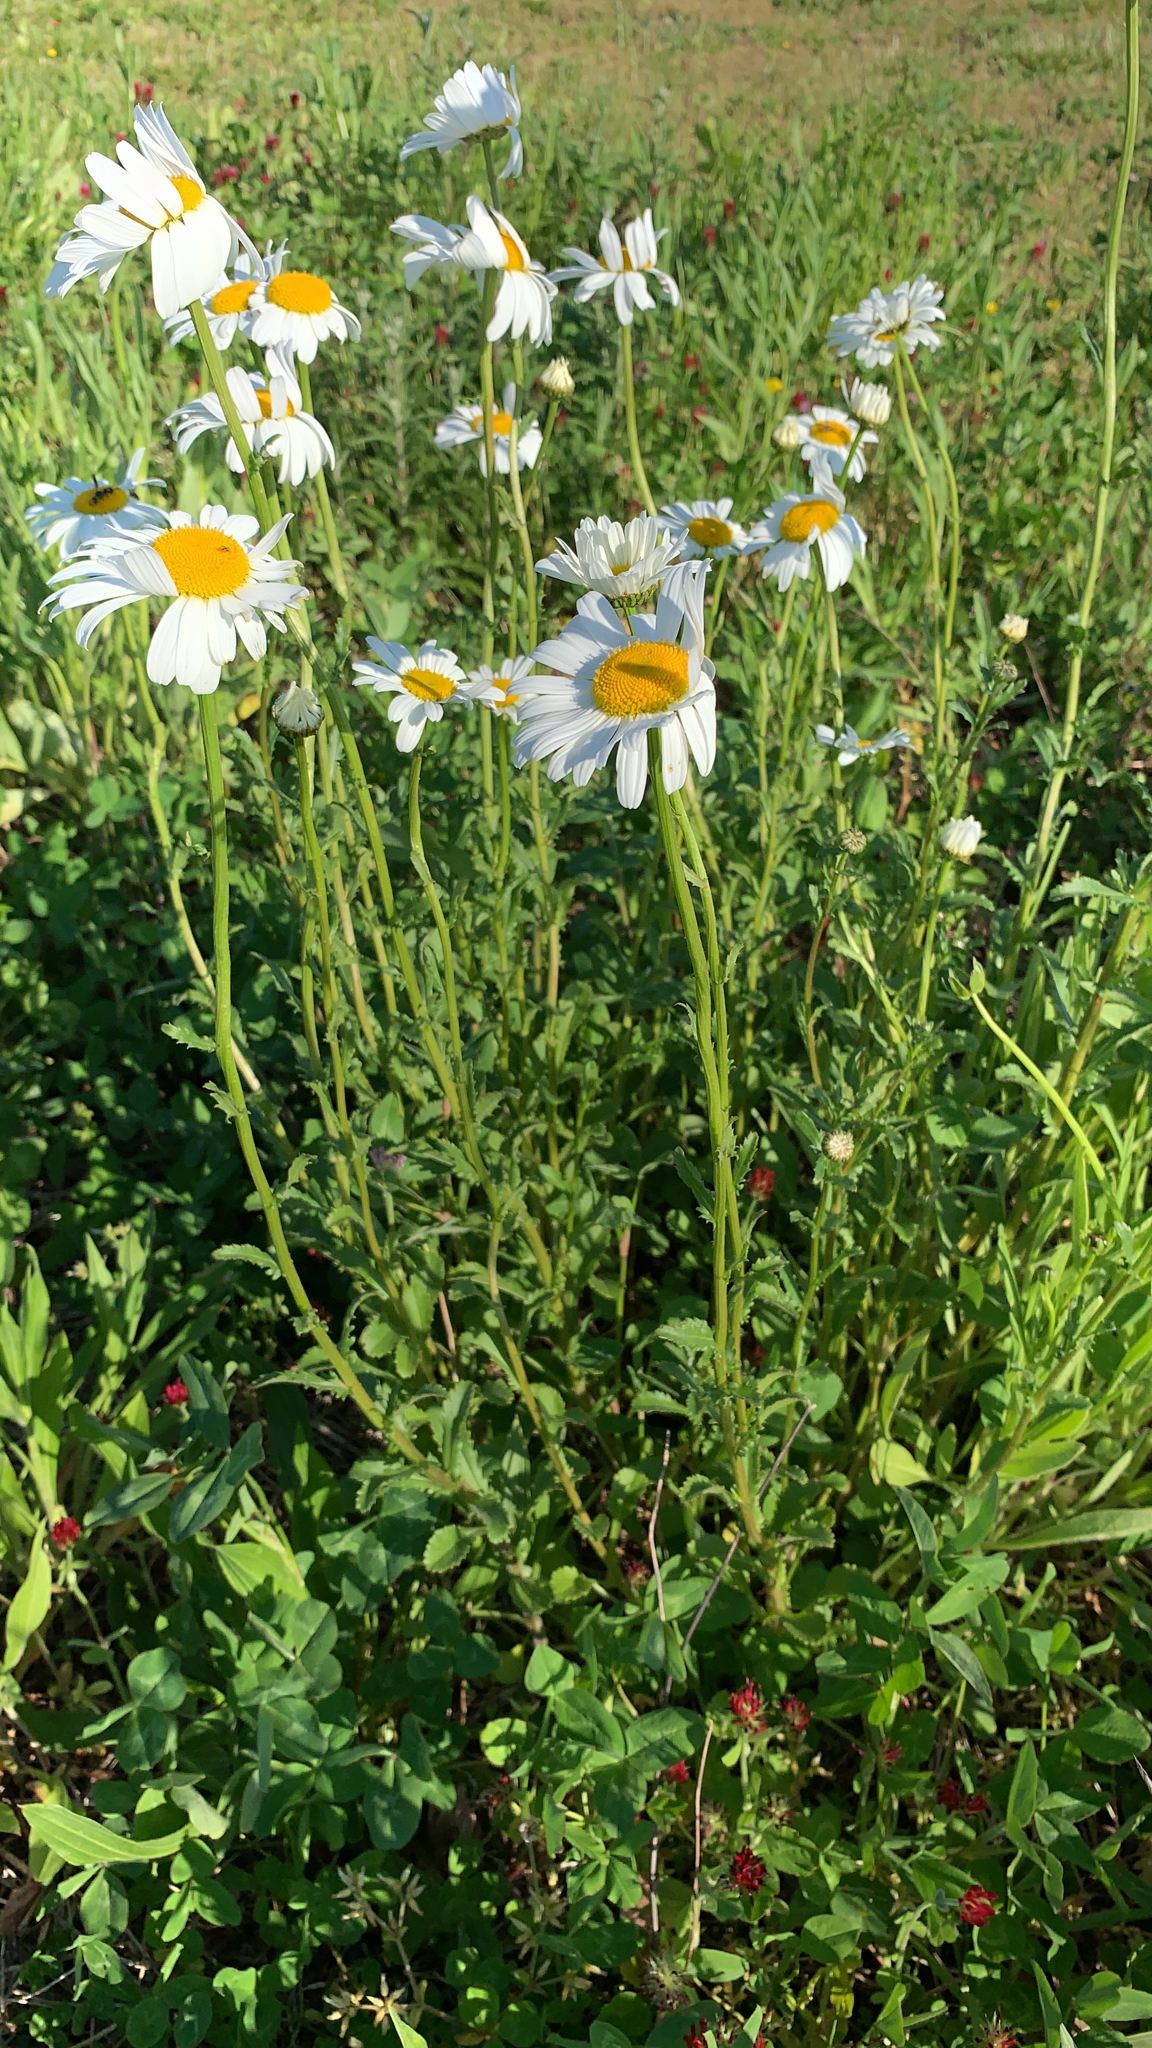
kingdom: Plantae
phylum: Tracheophyta
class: Magnoliopsida
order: Asterales
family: Asteraceae
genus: Leucanthemum
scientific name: Leucanthemum vulgare
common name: Oxeye daisy
